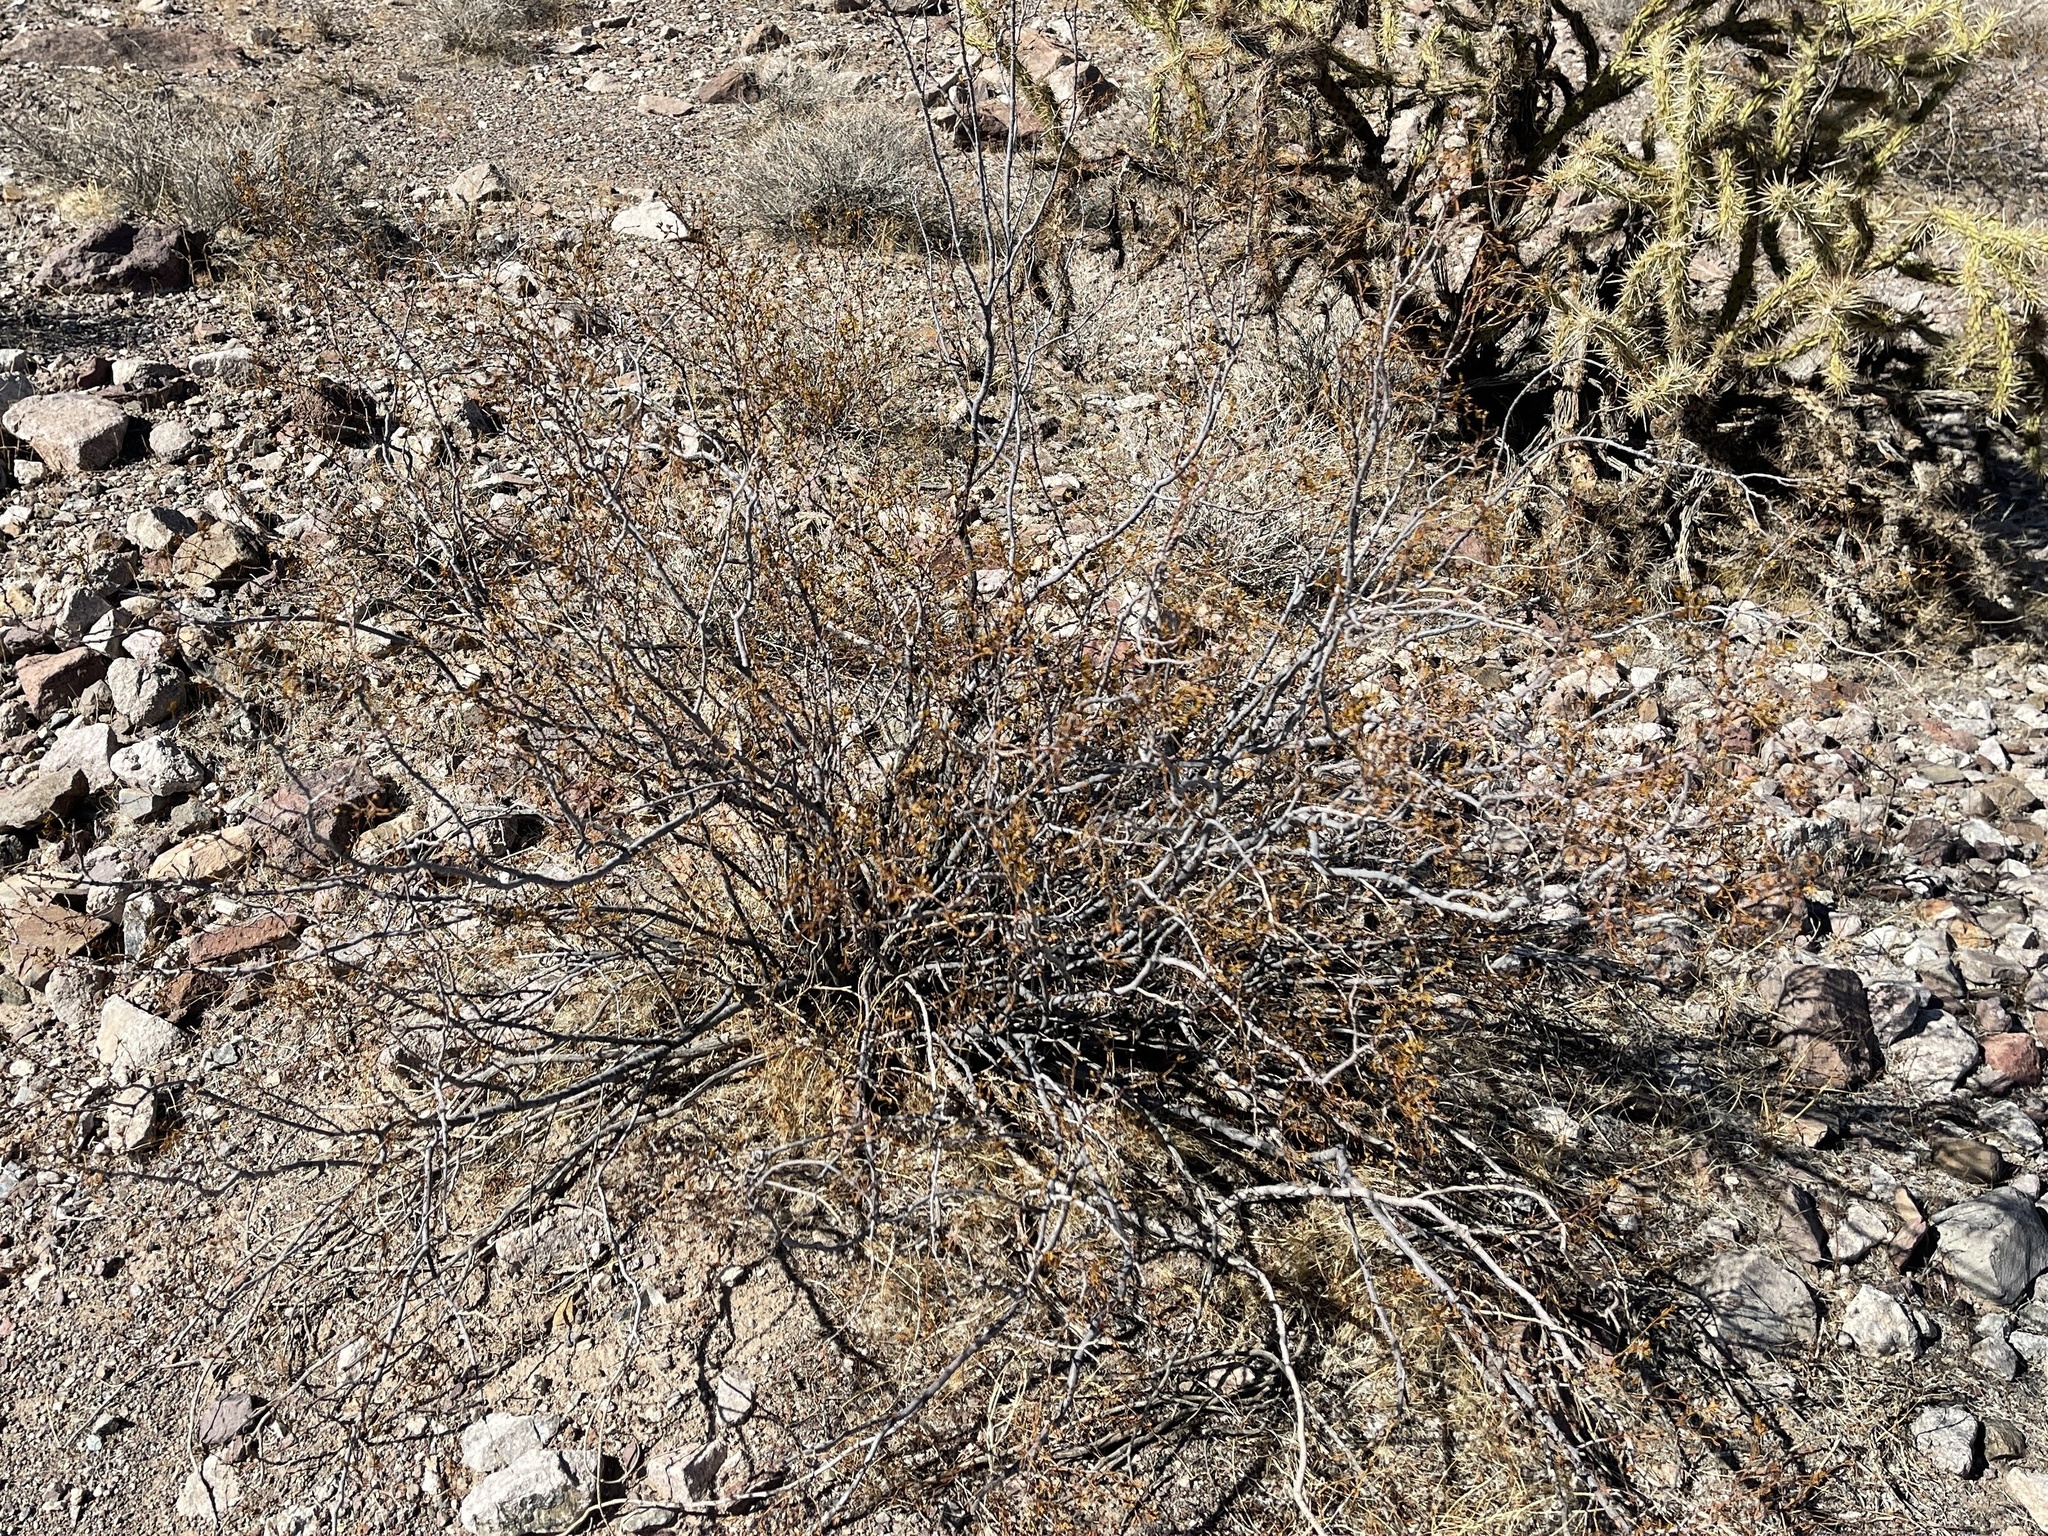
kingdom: Plantae
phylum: Tracheophyta
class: Magnoliopsida
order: Zygophyllales
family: Zygophyllaceae
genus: Larrea
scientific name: Larrea tridentata
